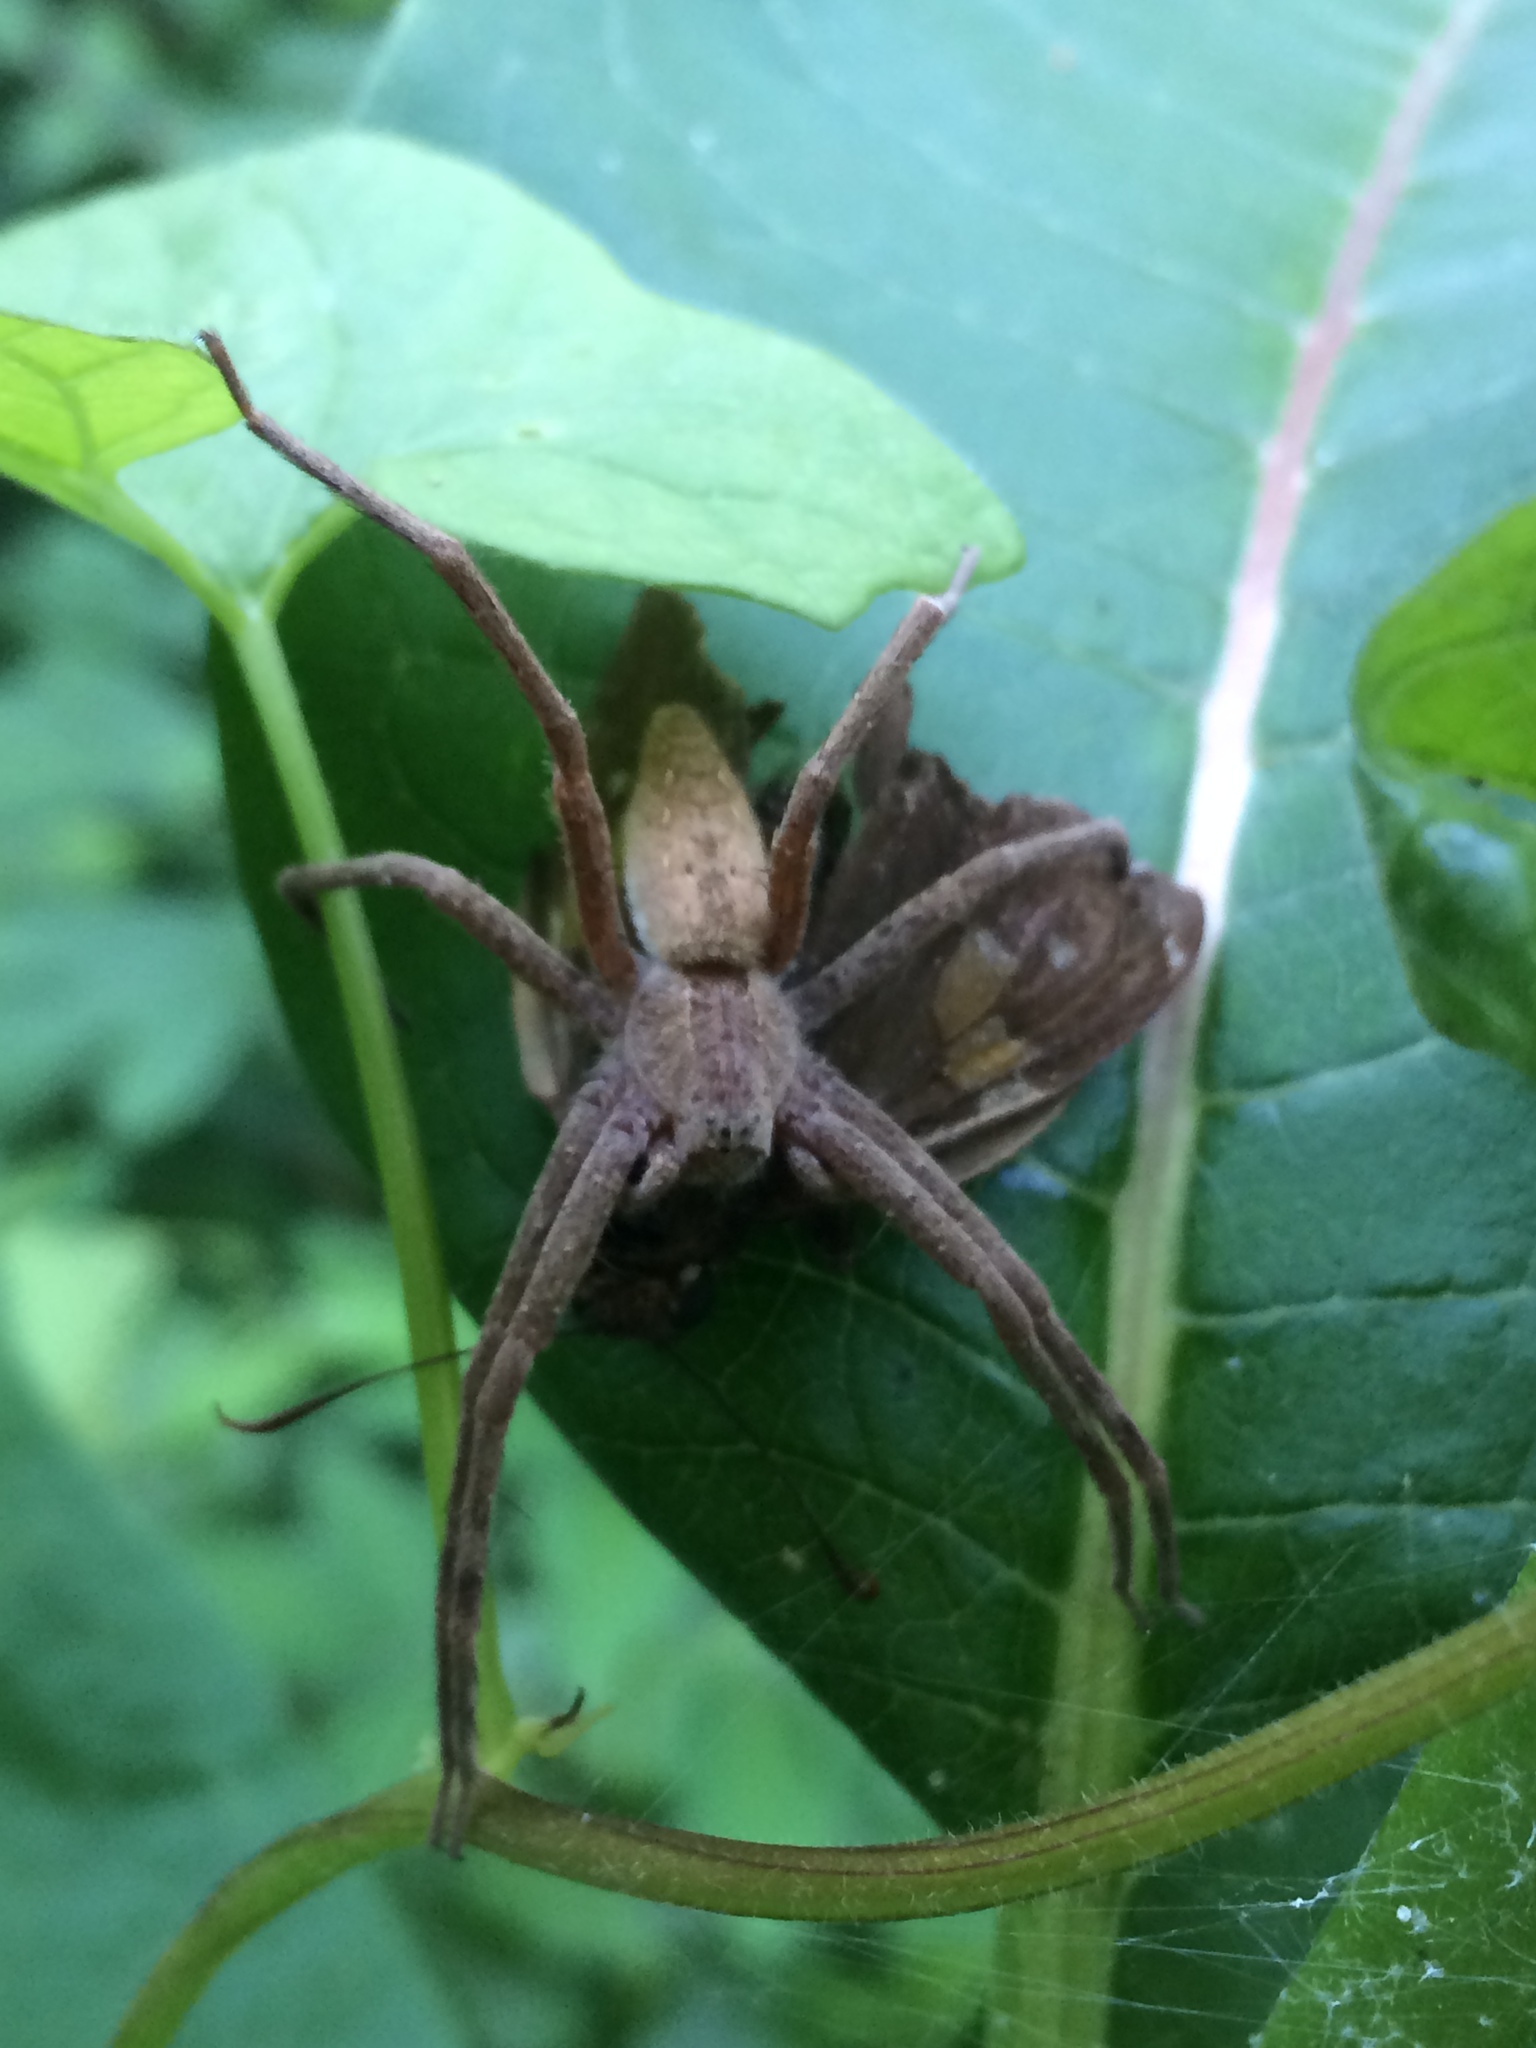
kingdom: Animalia
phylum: Arthropoda
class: Arachnida
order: Araneae
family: Pisauridae
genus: Pisaurina
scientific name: Pisaurina mira
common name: American nursery web spider
